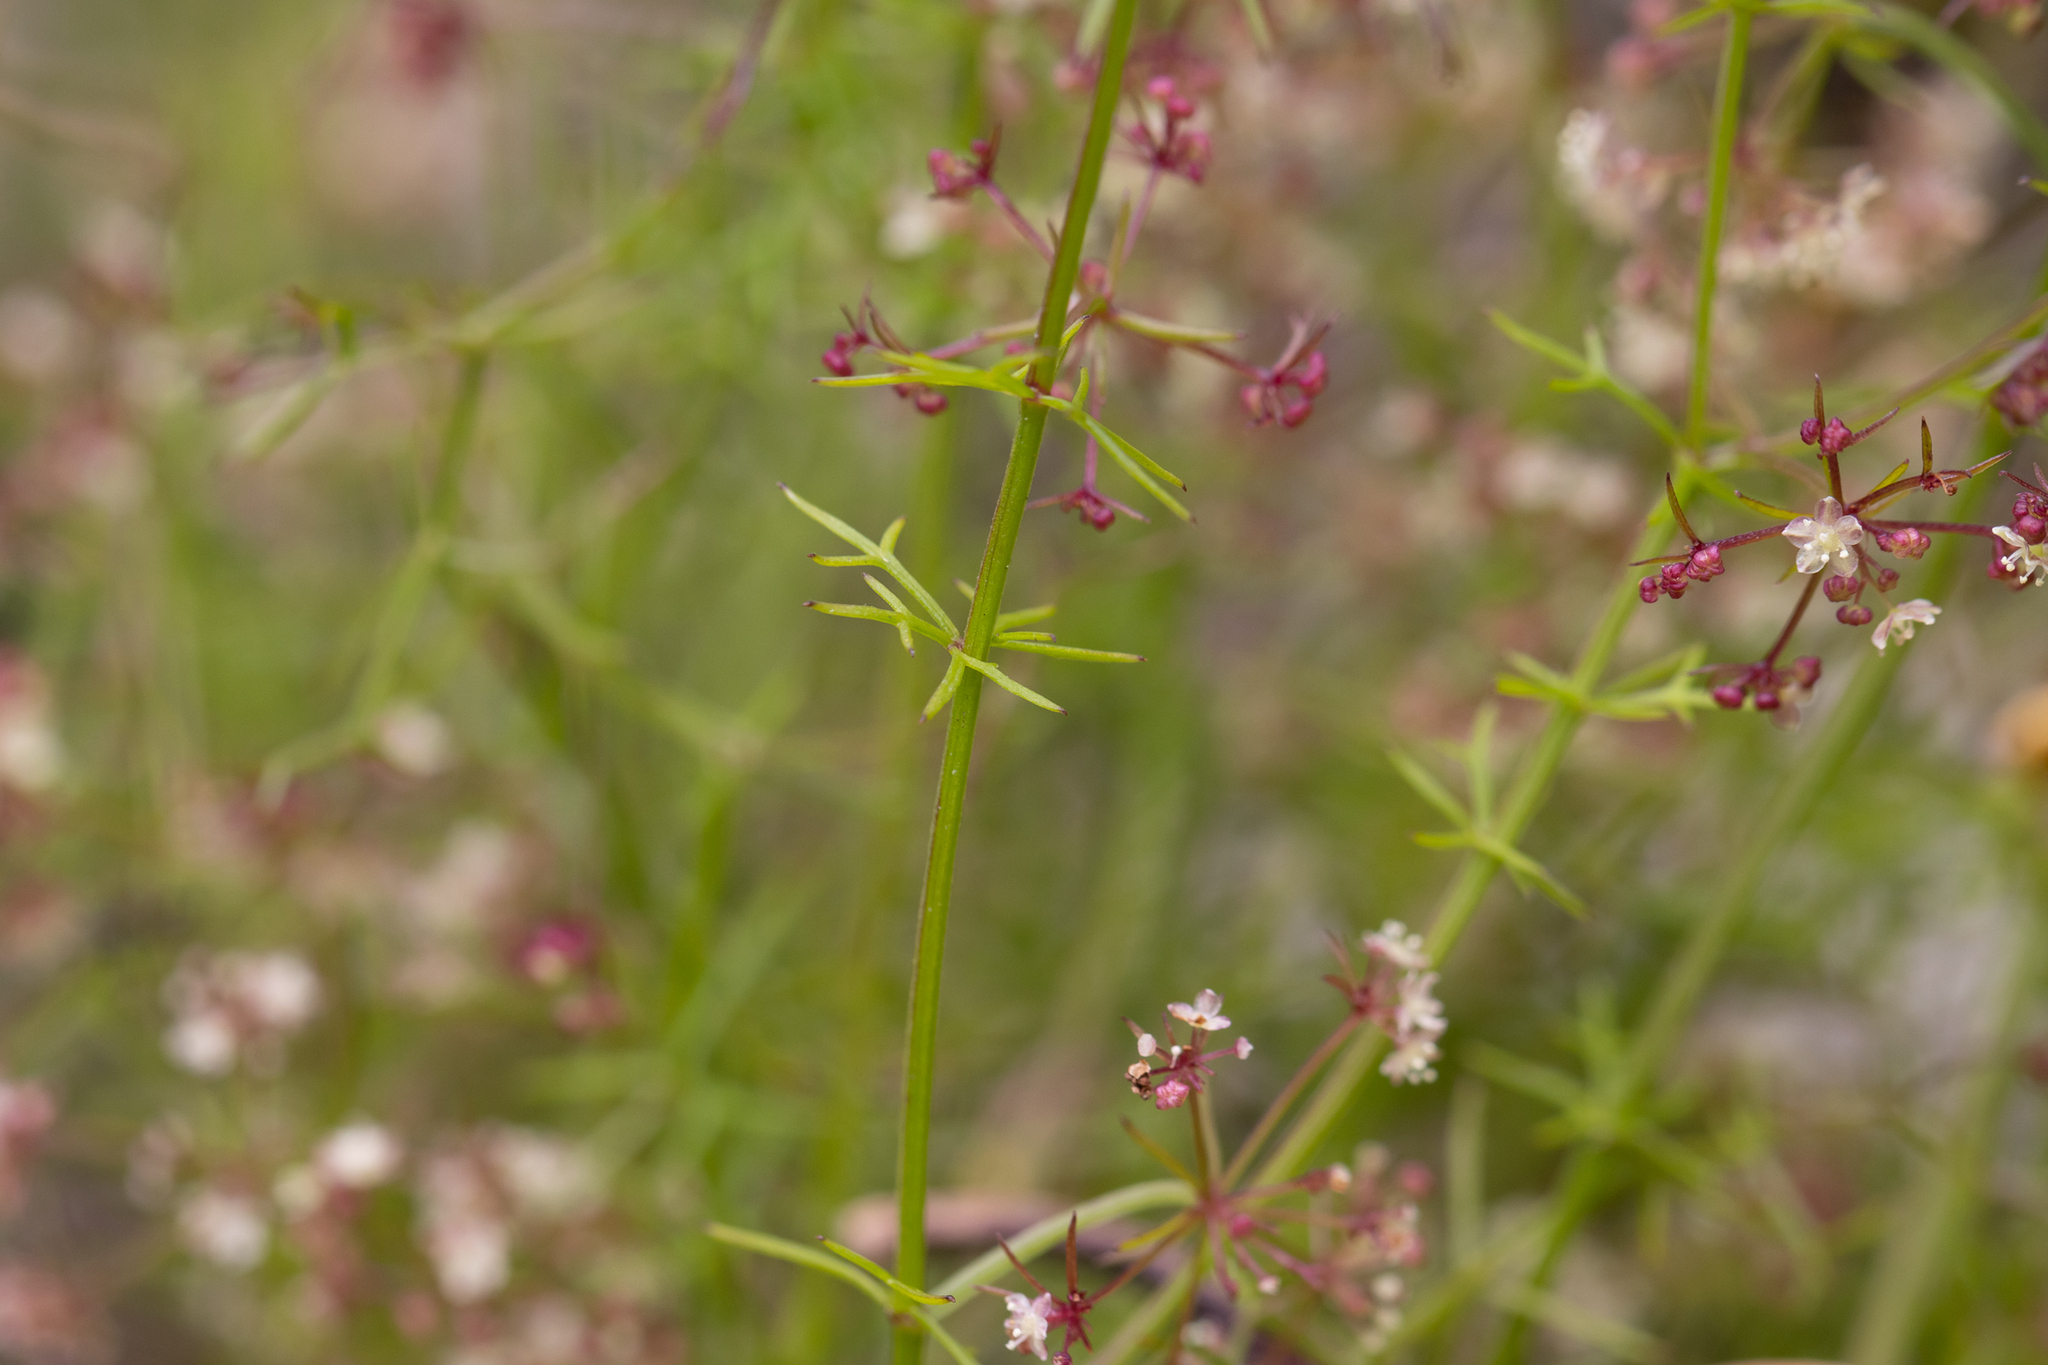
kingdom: Plantae
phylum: Tracheophyta
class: Magnoliopsida
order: Apiales
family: Apiaceae
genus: Platysace
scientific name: Platysace tenuissima
